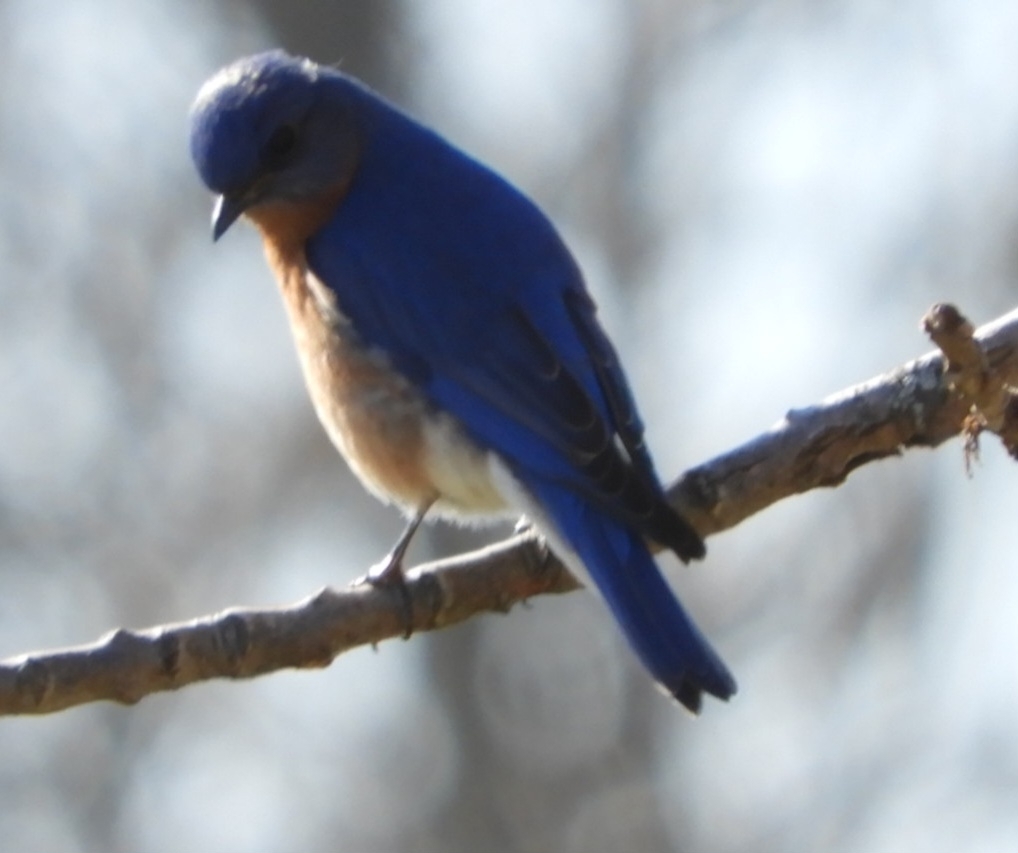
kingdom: Animalia
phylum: Chordata
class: Aves
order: Passeriformes
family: Turdidae
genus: Sialia
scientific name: Sialia sialis
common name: Eastern bluebird
